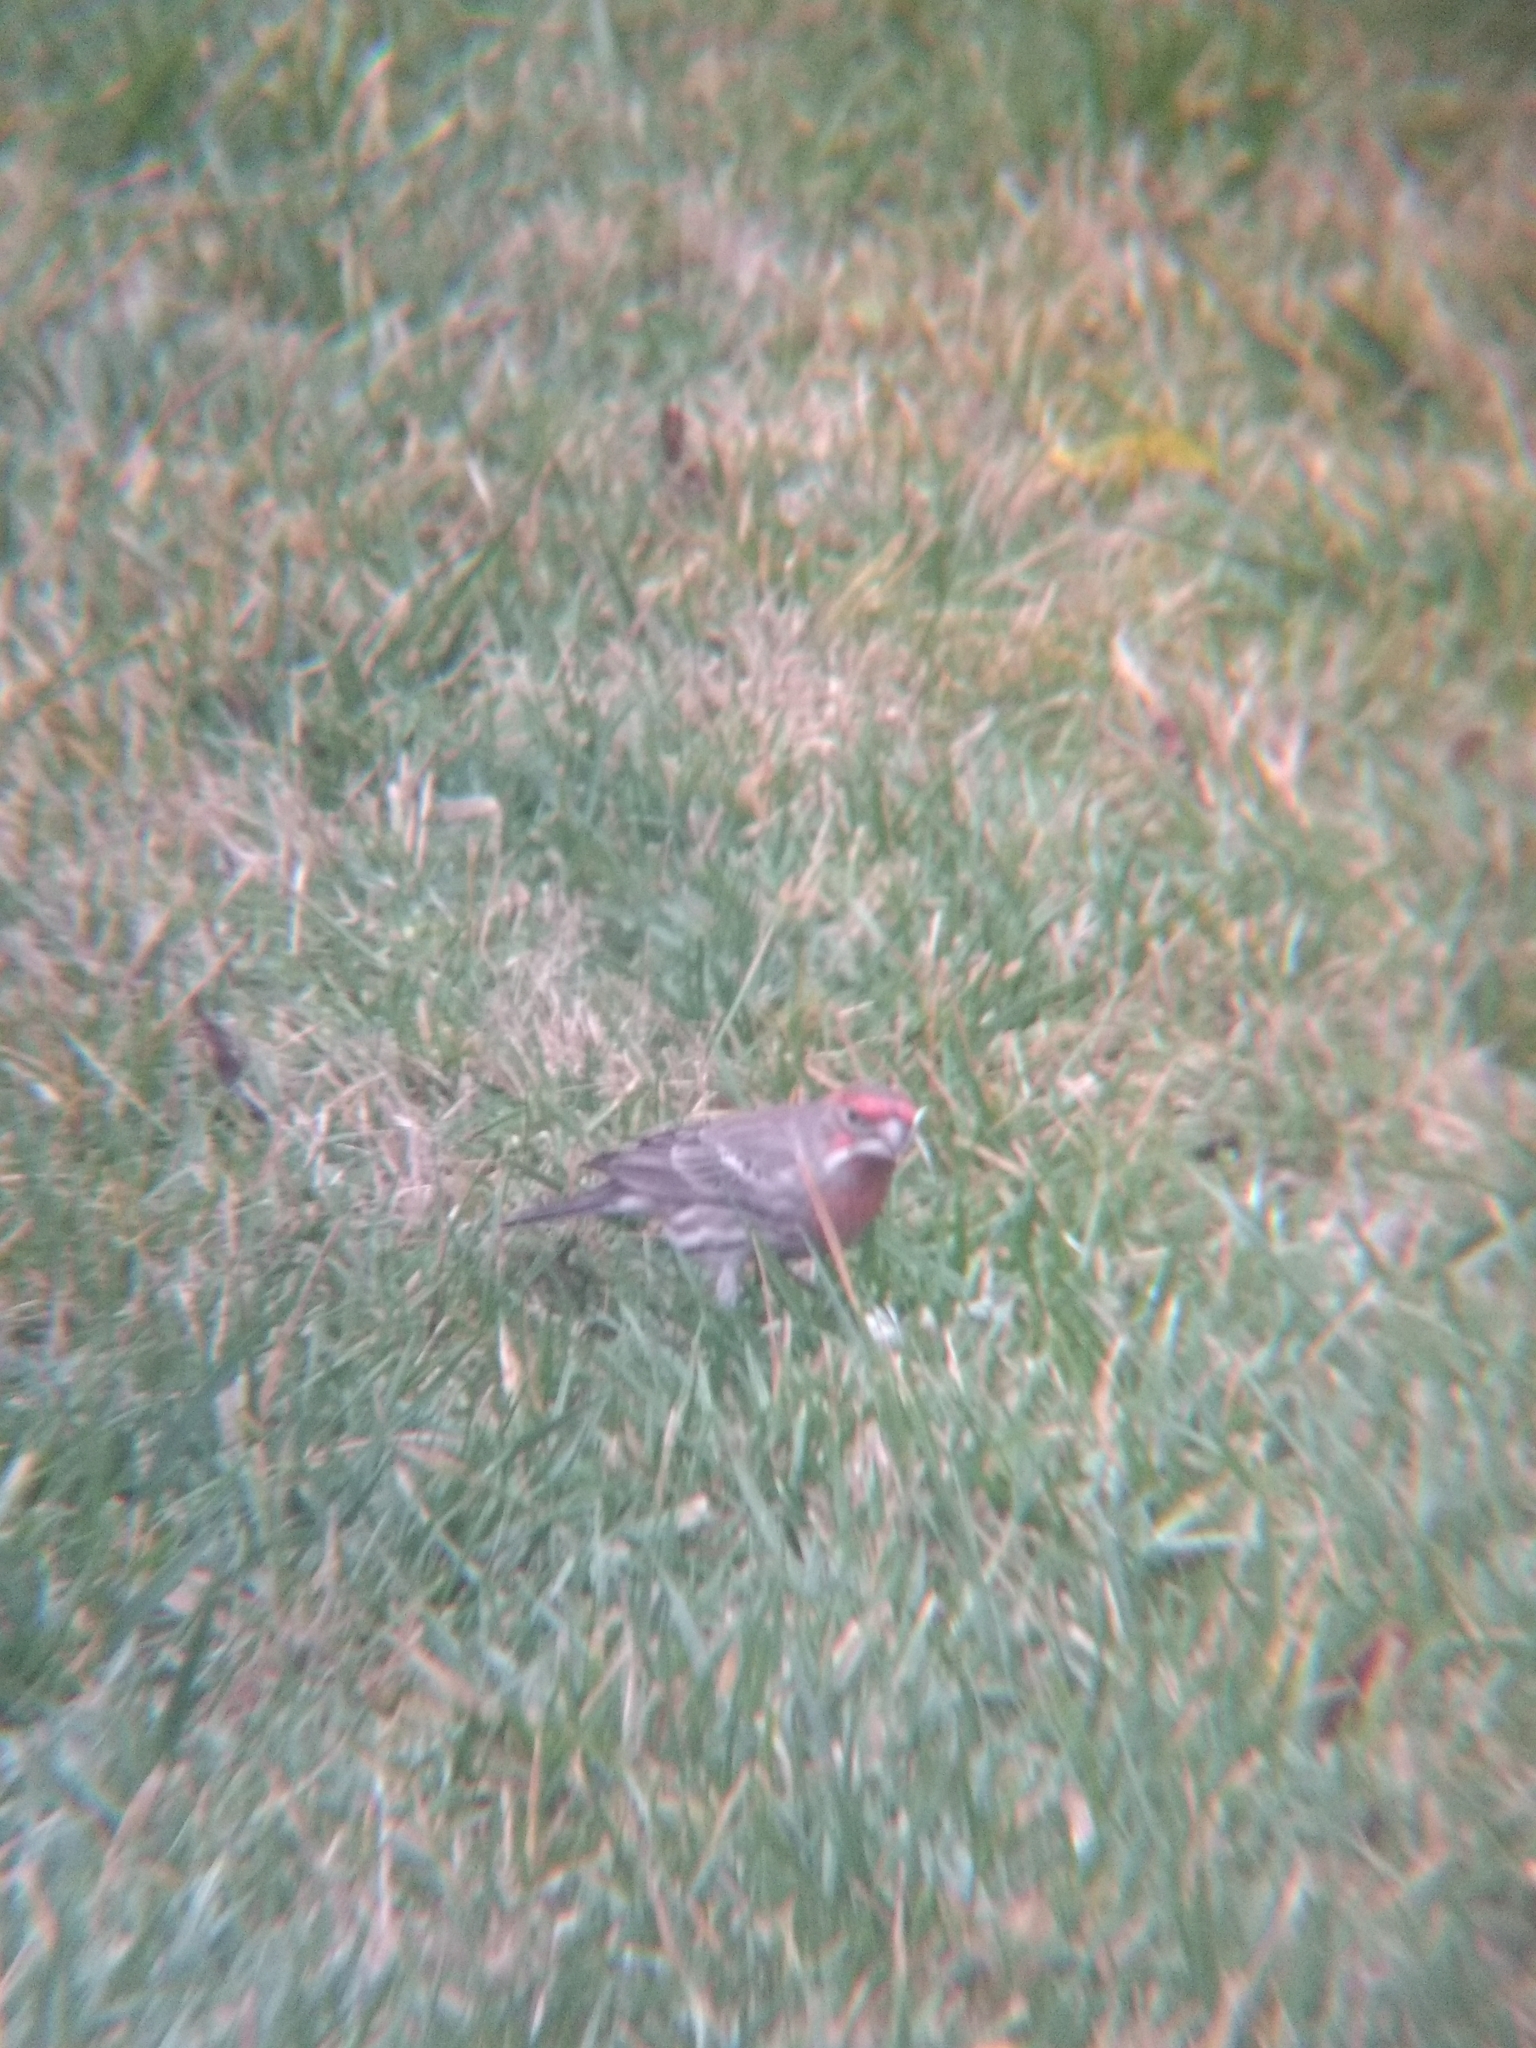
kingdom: Animalia
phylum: Chordata
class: Aves
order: Passeriformes
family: Fringillidae
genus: Haemorhous
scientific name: Haemorhous mexicanus
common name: House finch
